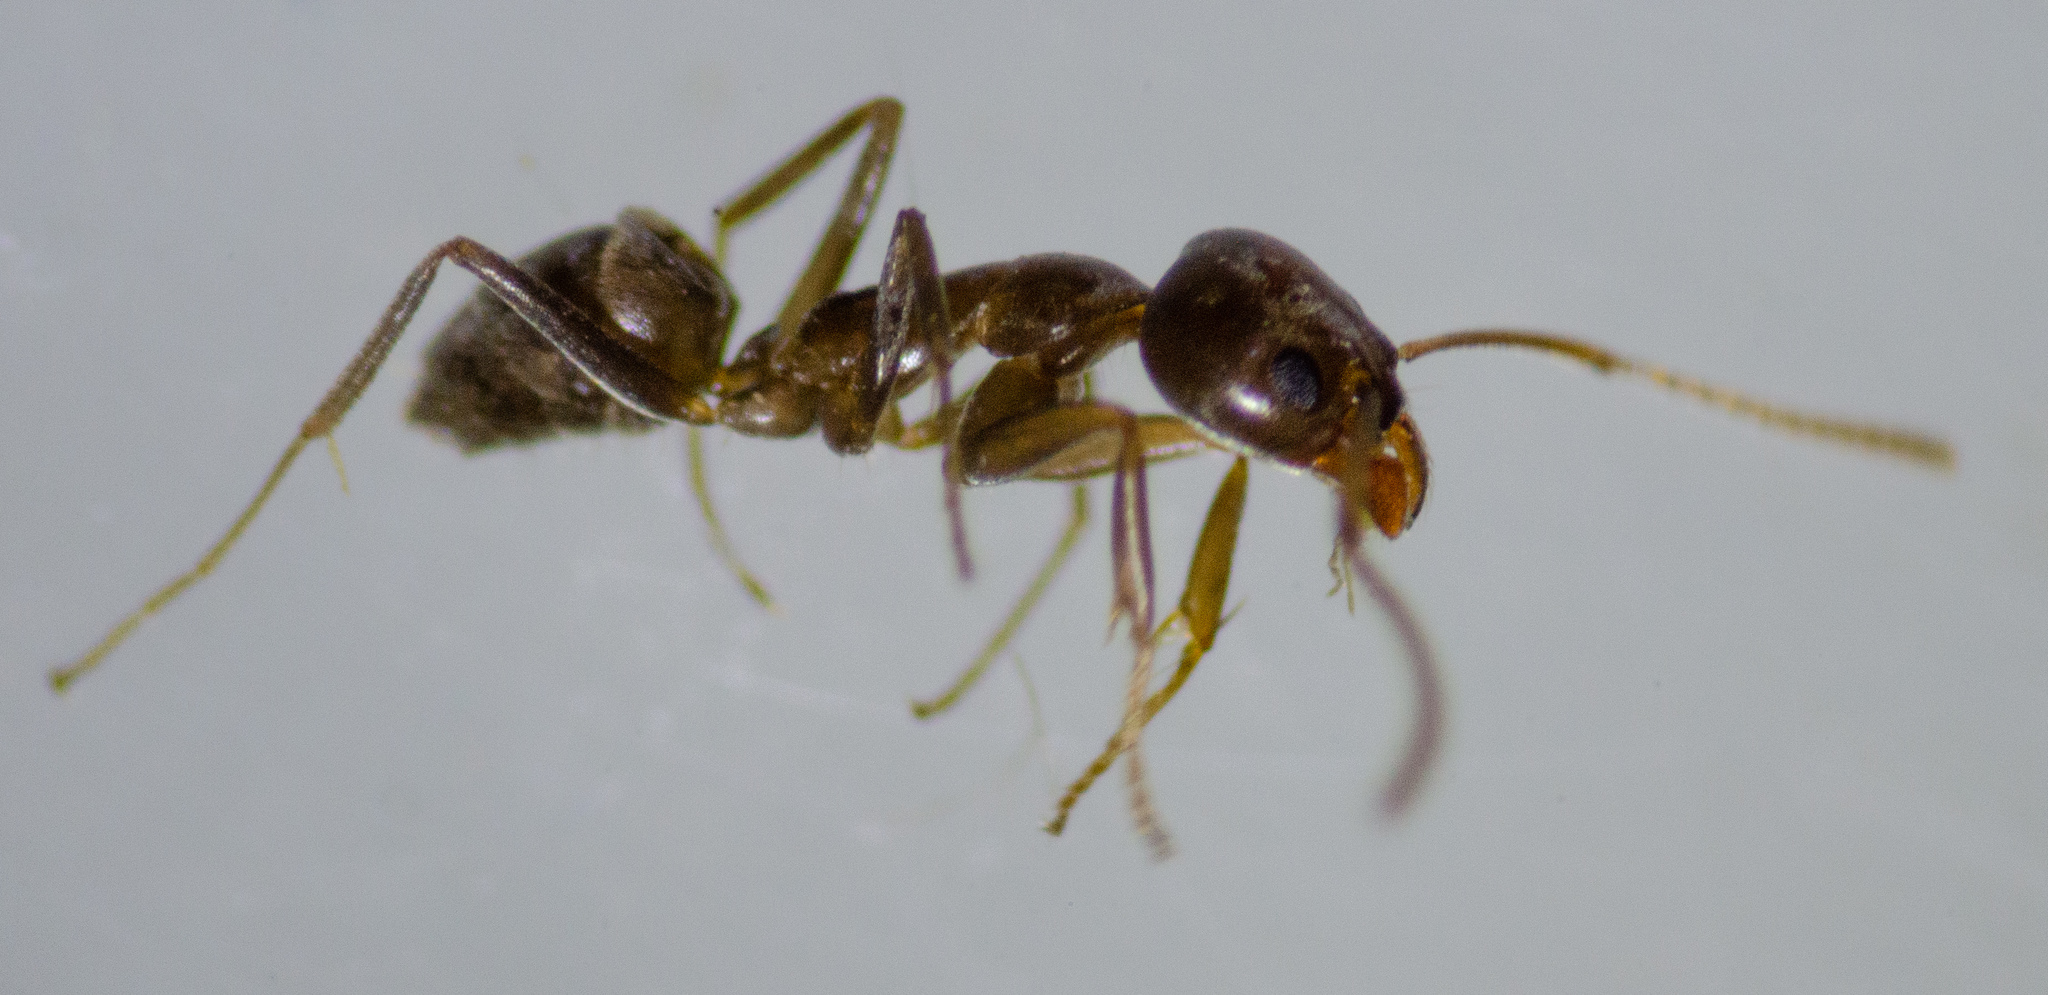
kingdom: Animalia
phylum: Arthropoda
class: Insecta
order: Hymenoptera
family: Formicidae
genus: Linepithema
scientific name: Linepithema humile
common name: Argentine ant
